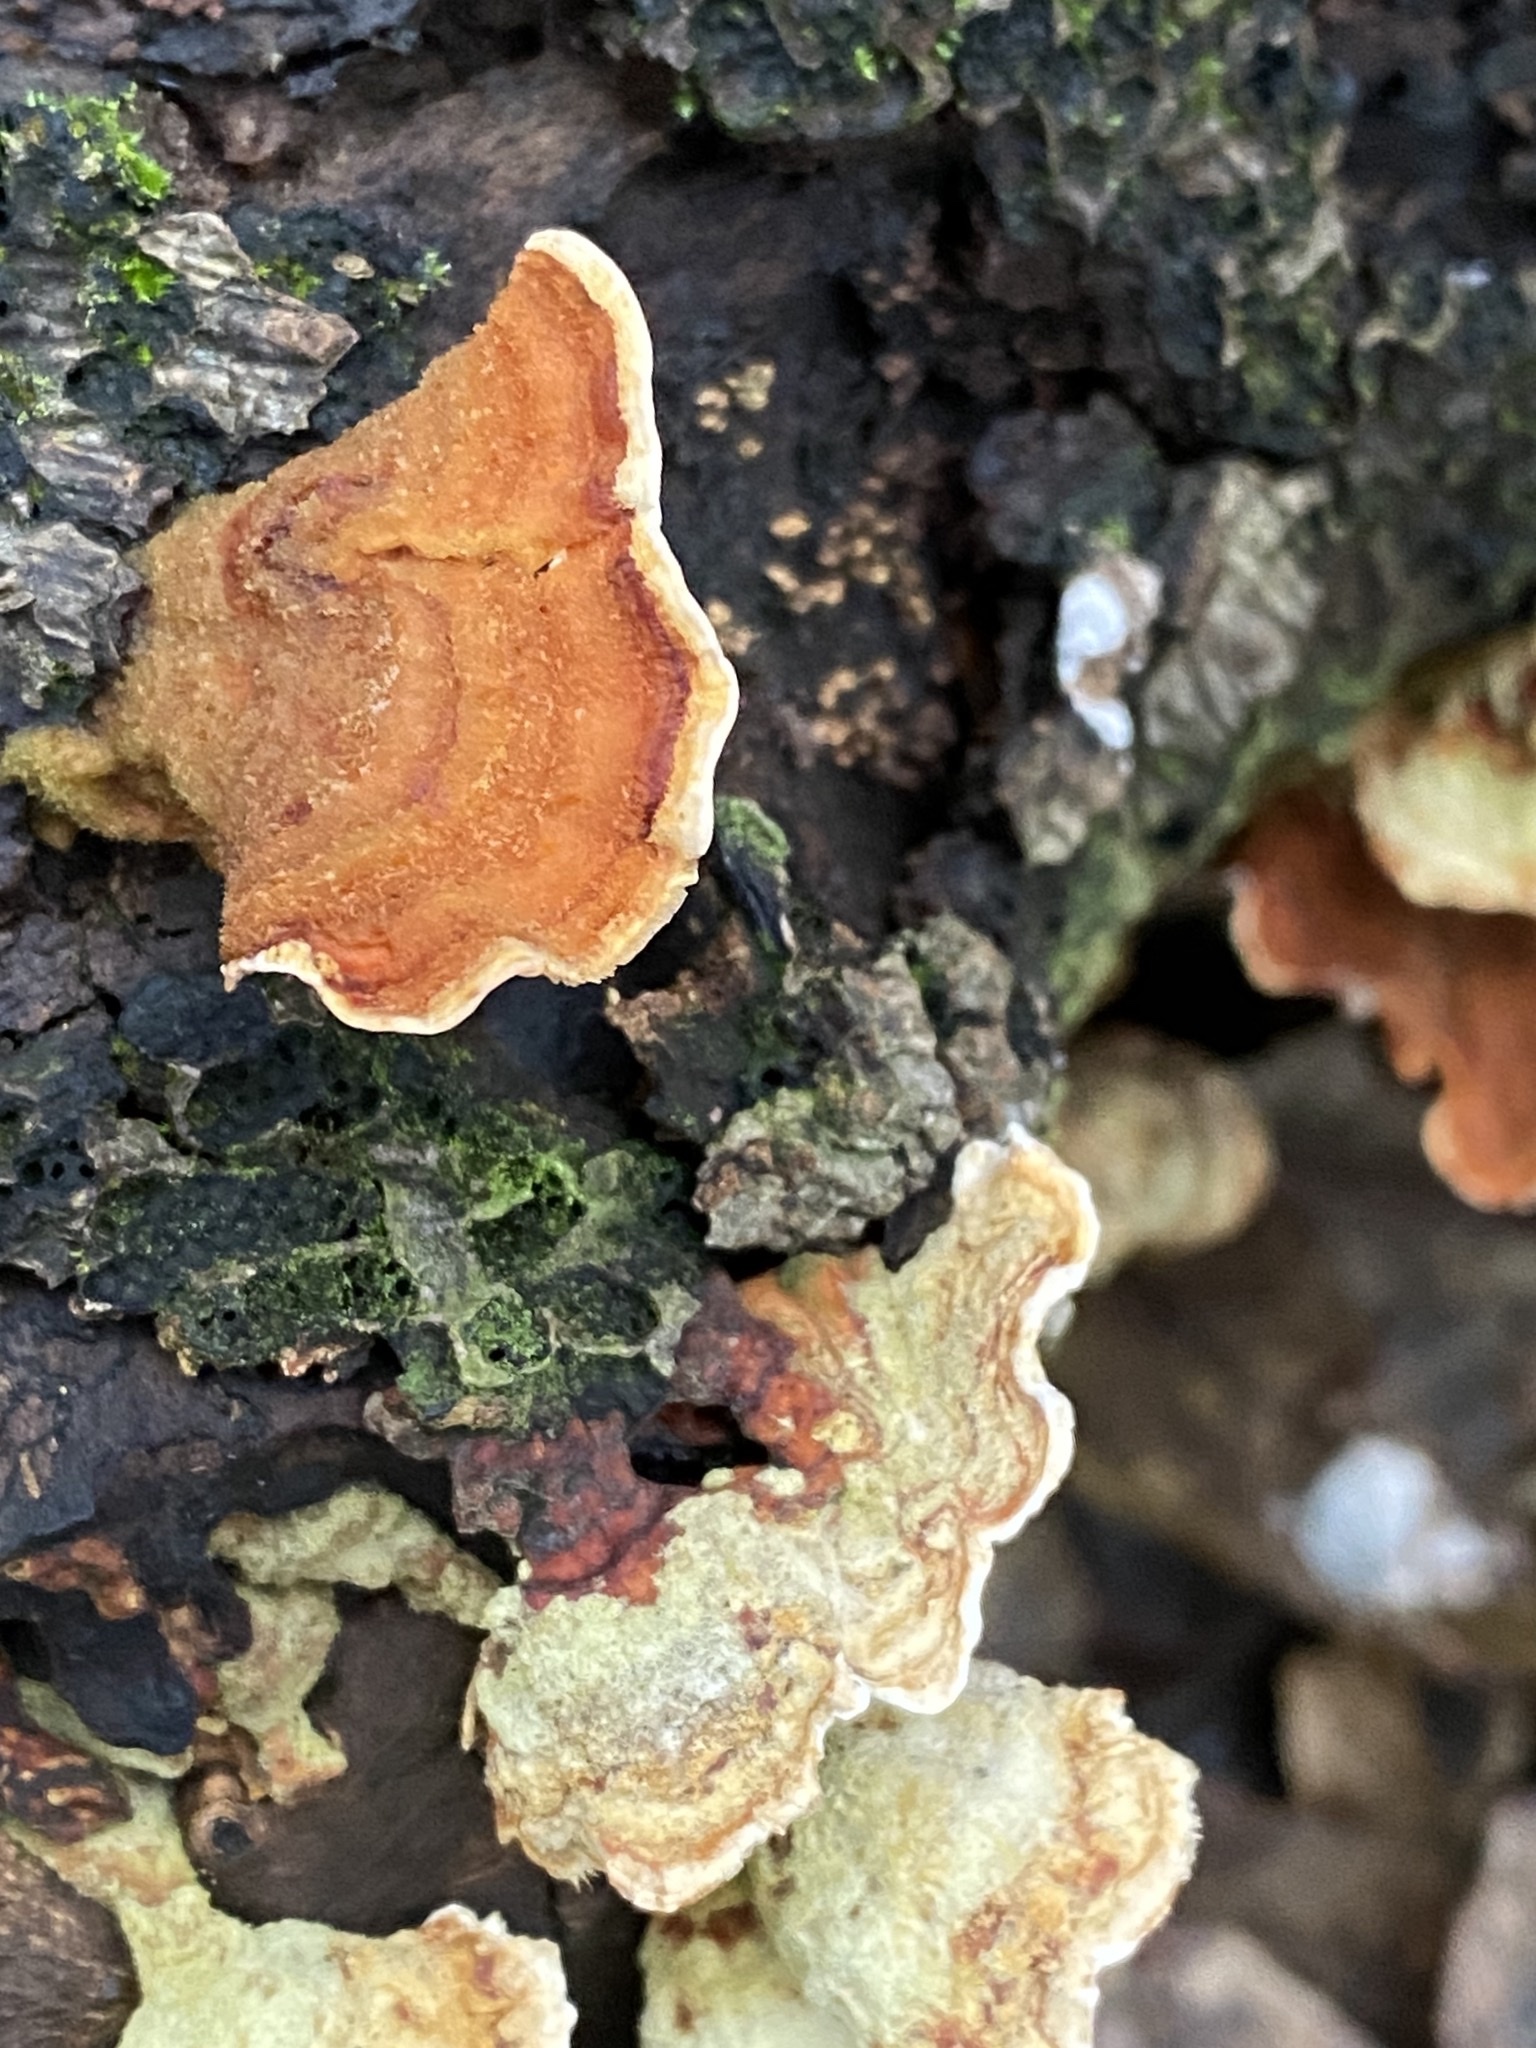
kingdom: Fungi
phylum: Basidiomycota
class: Agaricomycetes
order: Russulales
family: Stereaceae
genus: Stereum
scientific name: Stereum hirsutum
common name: Hairy curtain crust
